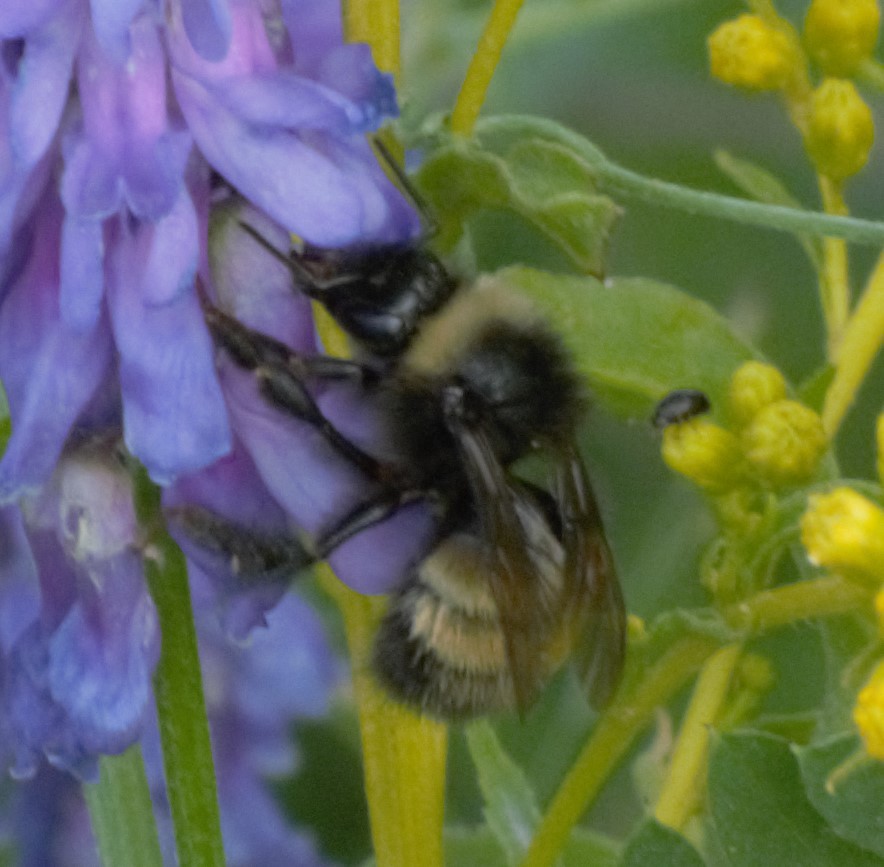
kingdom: Animalia
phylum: Arthropoda
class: Insecta
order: Hymenoptera
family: Apidae
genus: Bombus
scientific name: Bombus terricola
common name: Yellow-banded bumble bee
